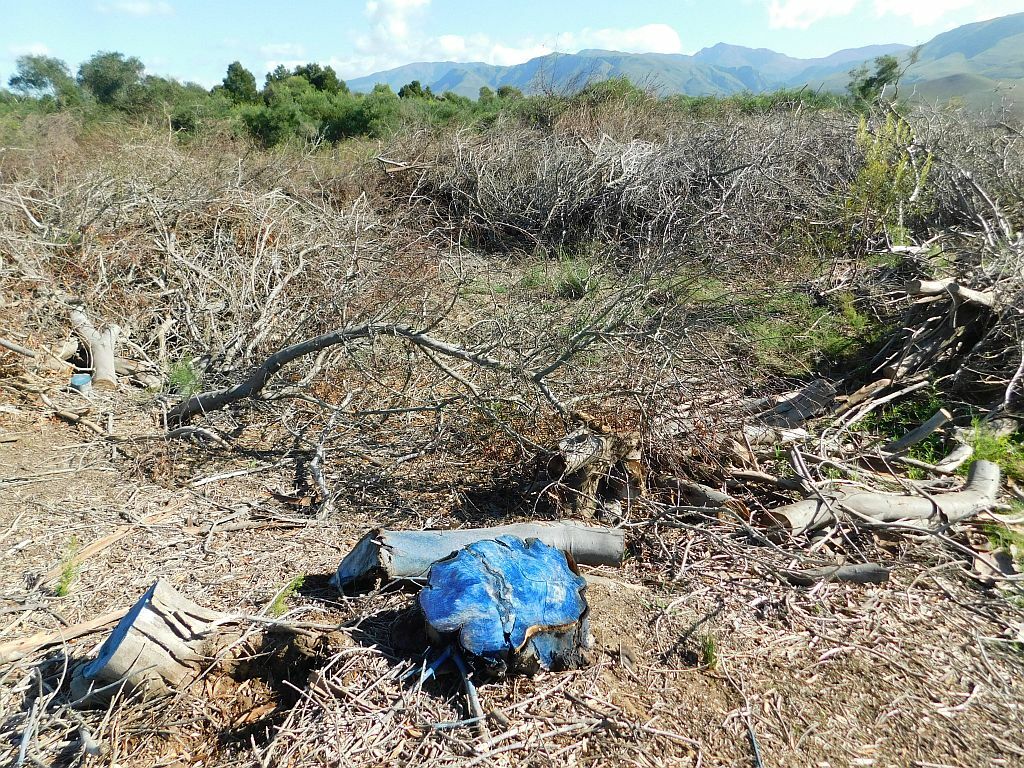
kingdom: Plantae
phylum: Tracheophyta
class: Magnoliopsida
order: Fabales
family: Fabaceae
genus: Acacia
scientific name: Acacia longifolia
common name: Sydney golden wattle
